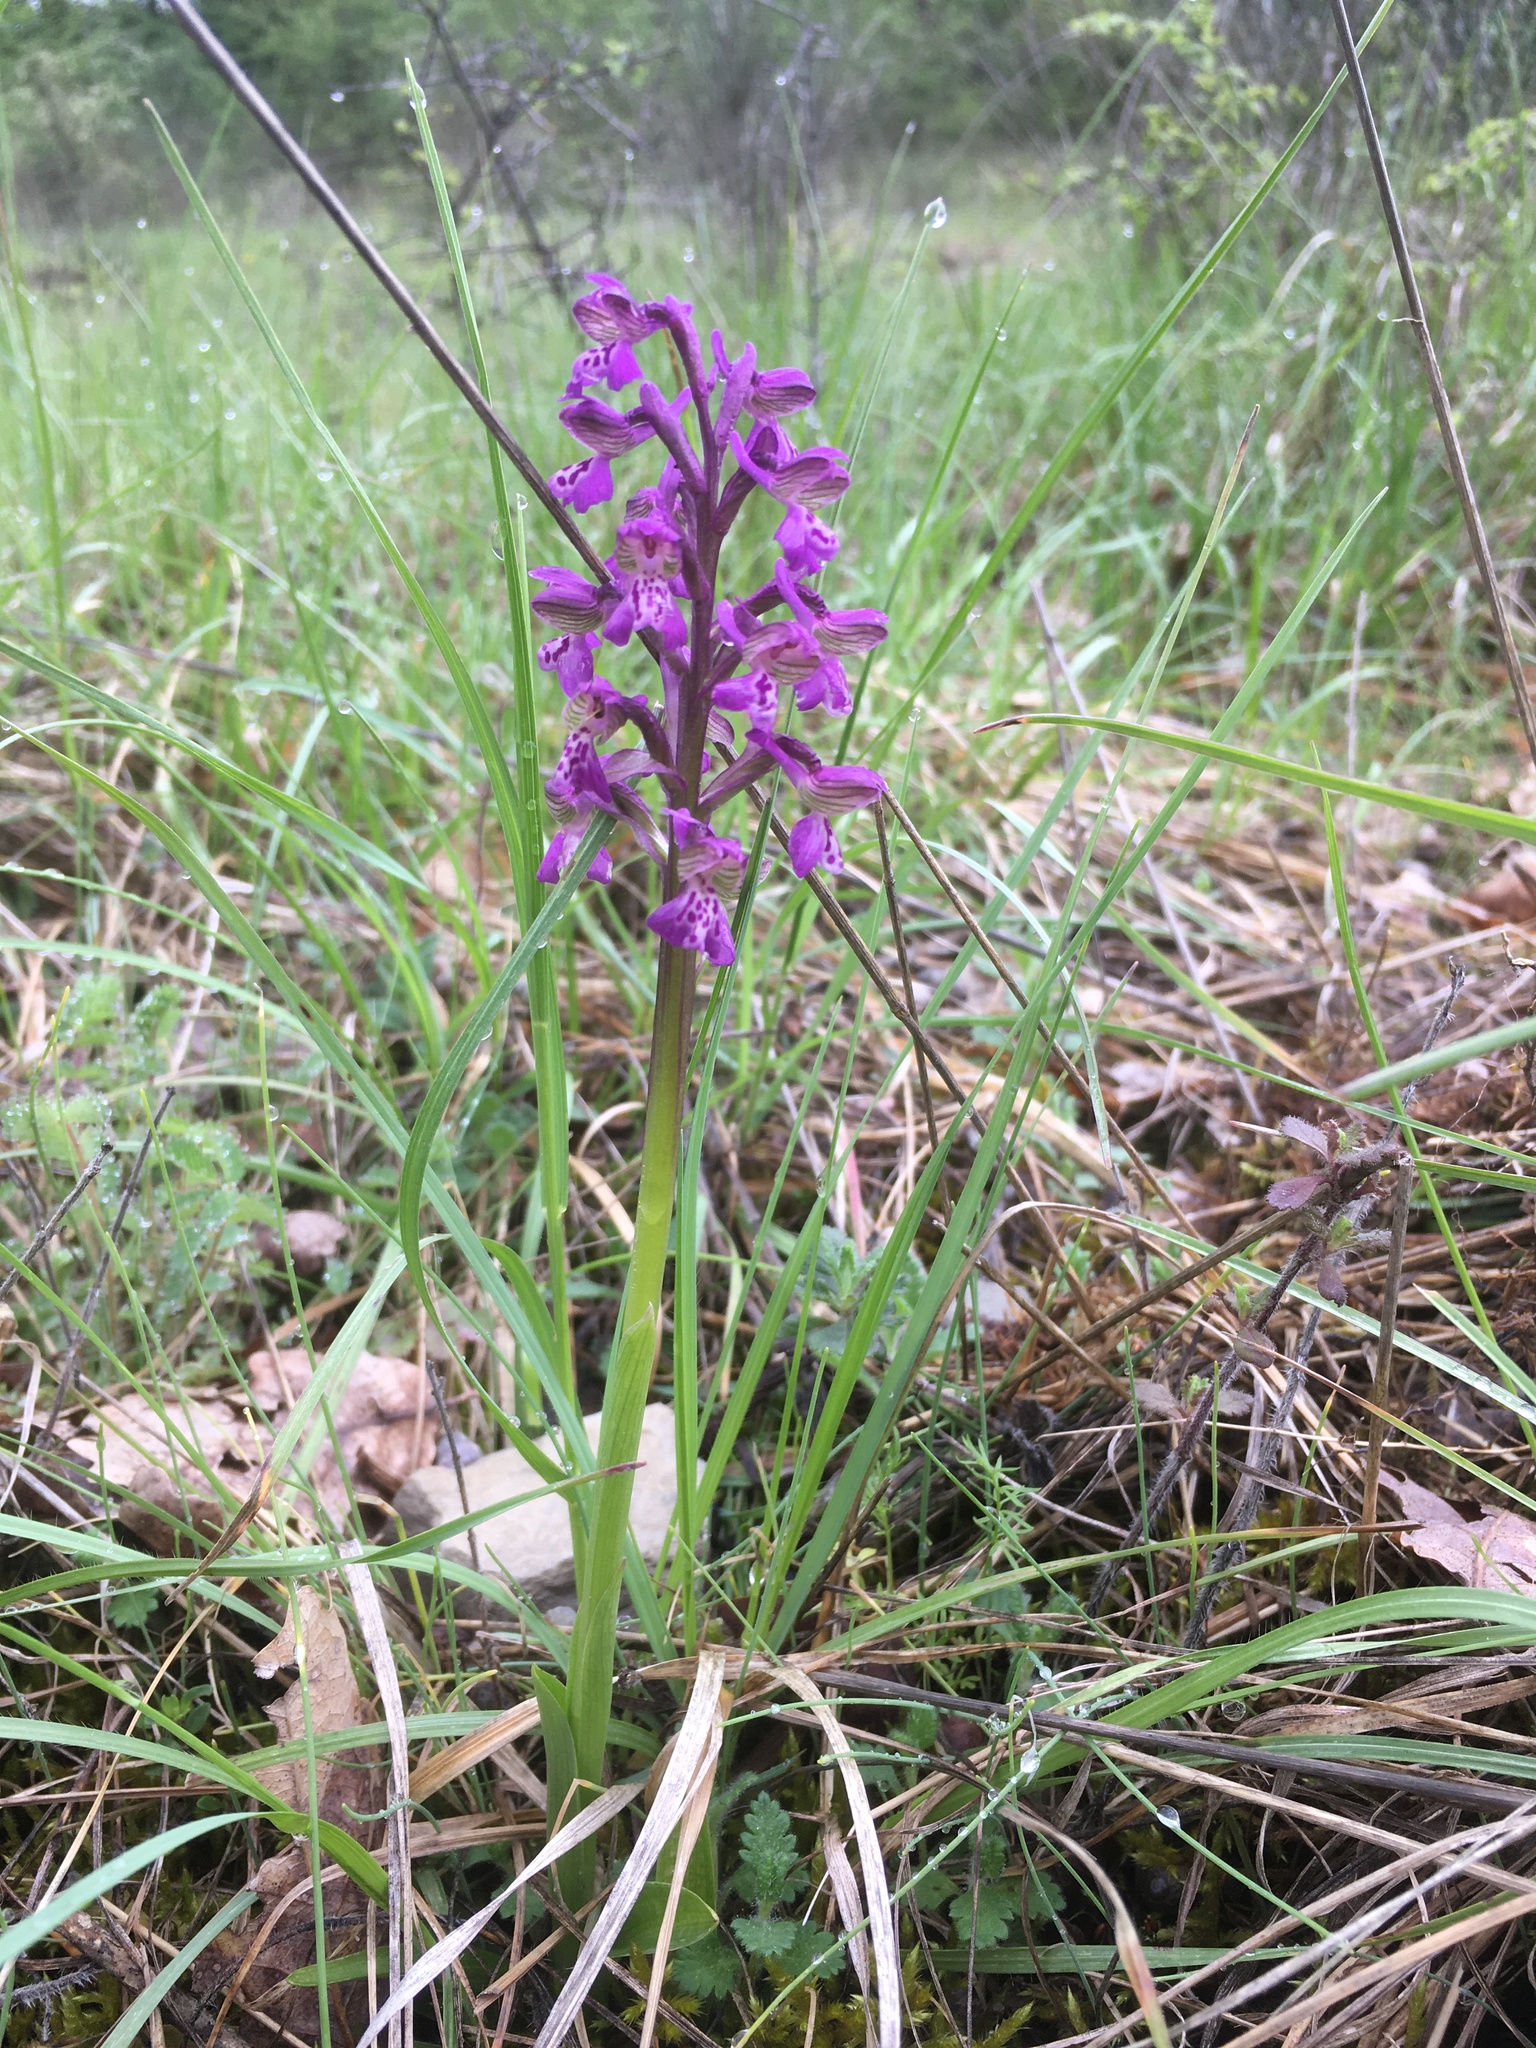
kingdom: Plantae
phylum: Tracheophyta
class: Liliopsida
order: Asparagales
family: Orchidaceae
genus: Anacamptis
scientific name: Anacamptis morio
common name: Green-winged orchid
